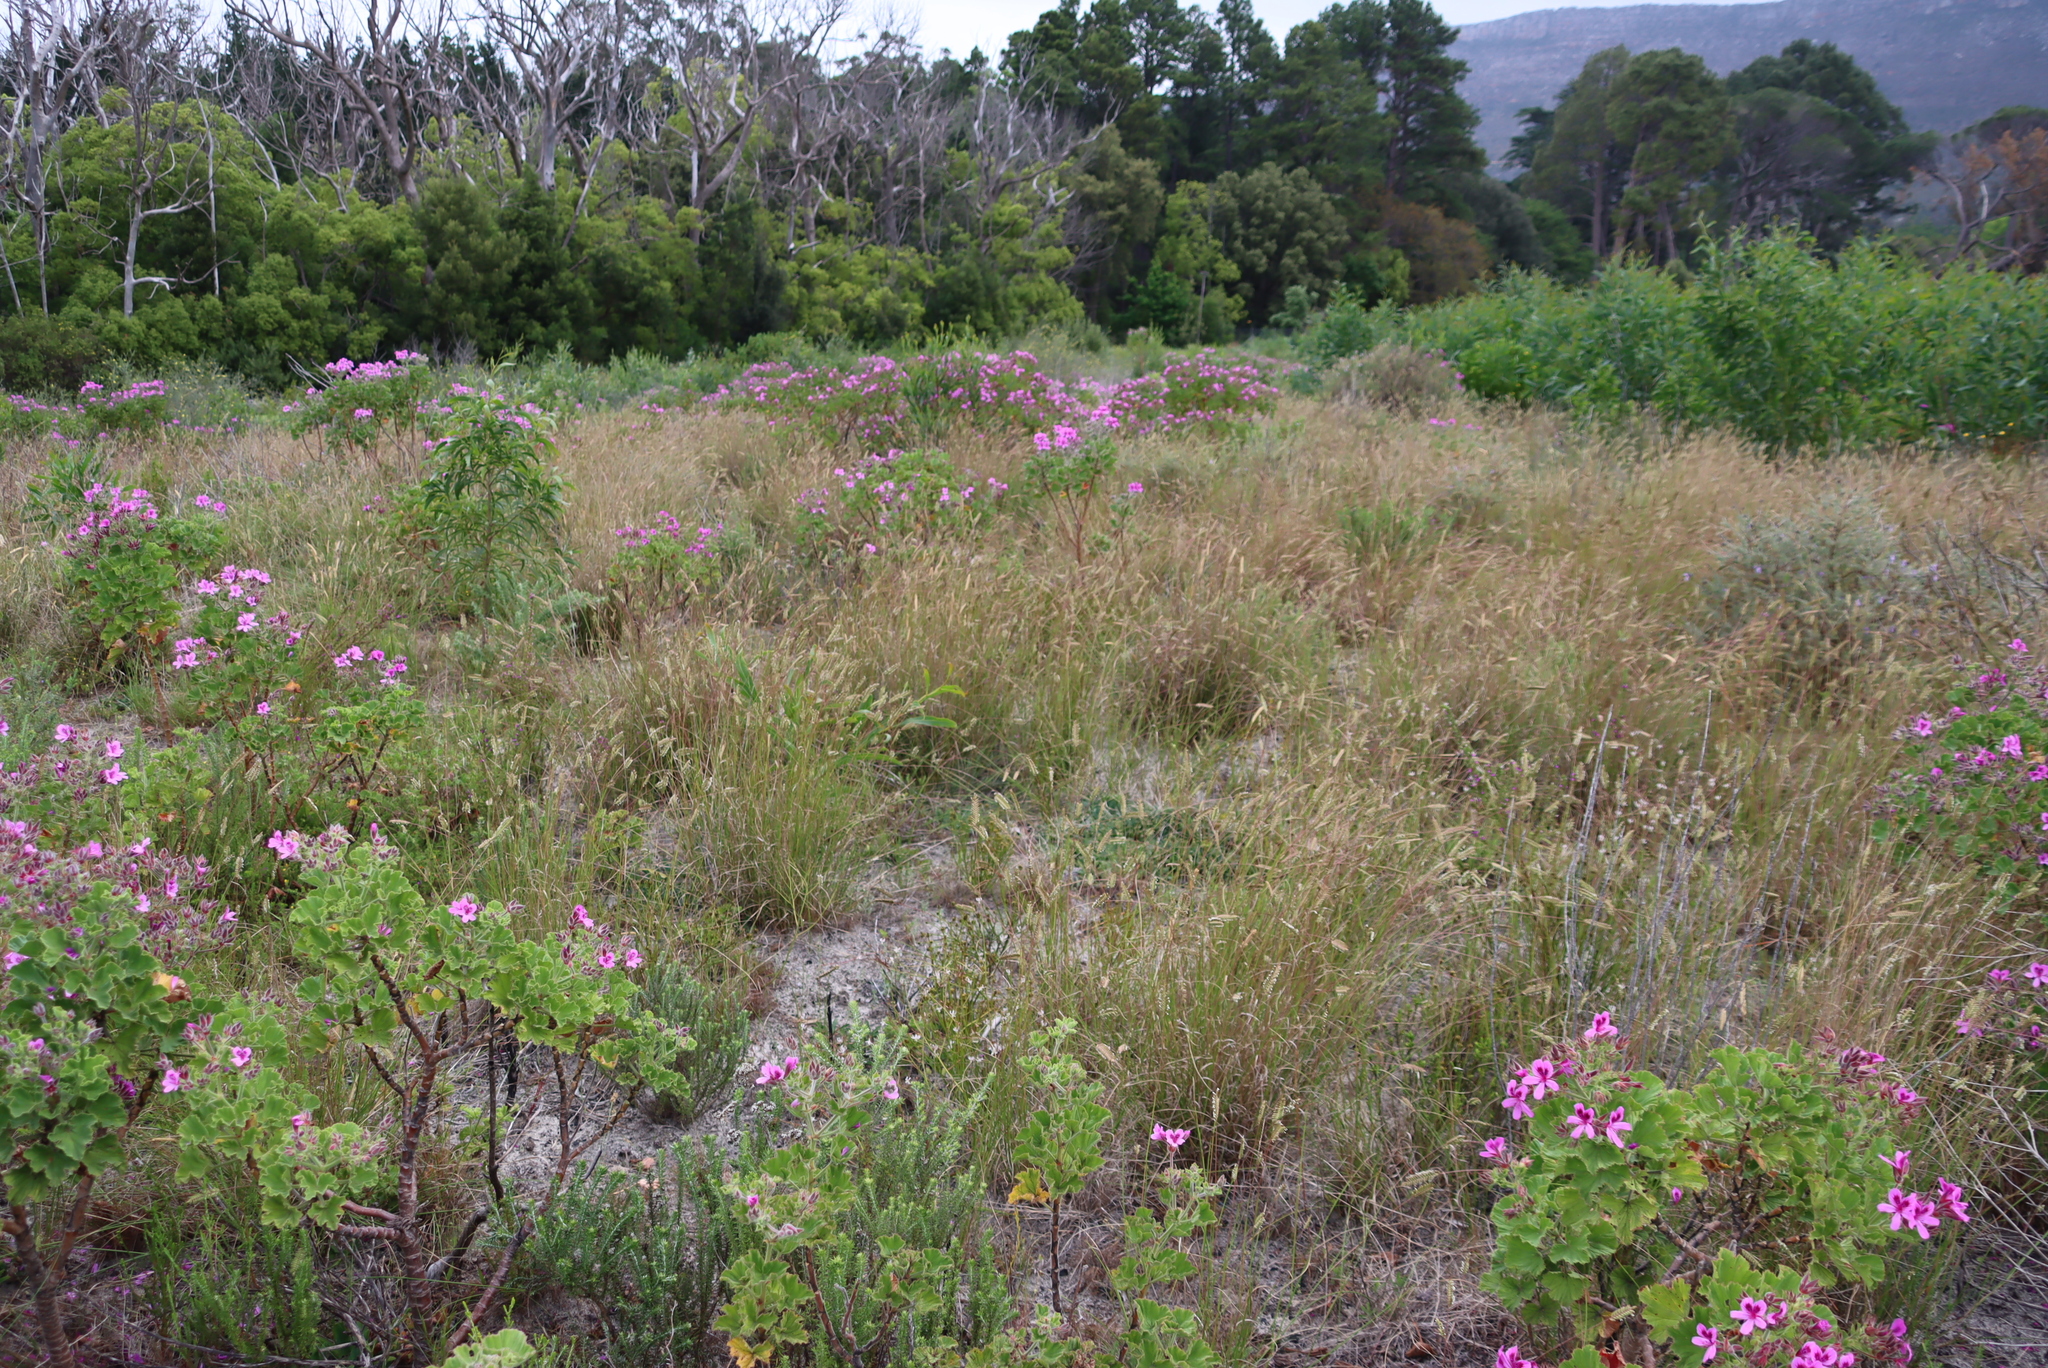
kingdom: Plantae
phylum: Tracheophyta
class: Liliopsida
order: Poales
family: Poaceae
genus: Tribolium
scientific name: Tribolium uniolae
